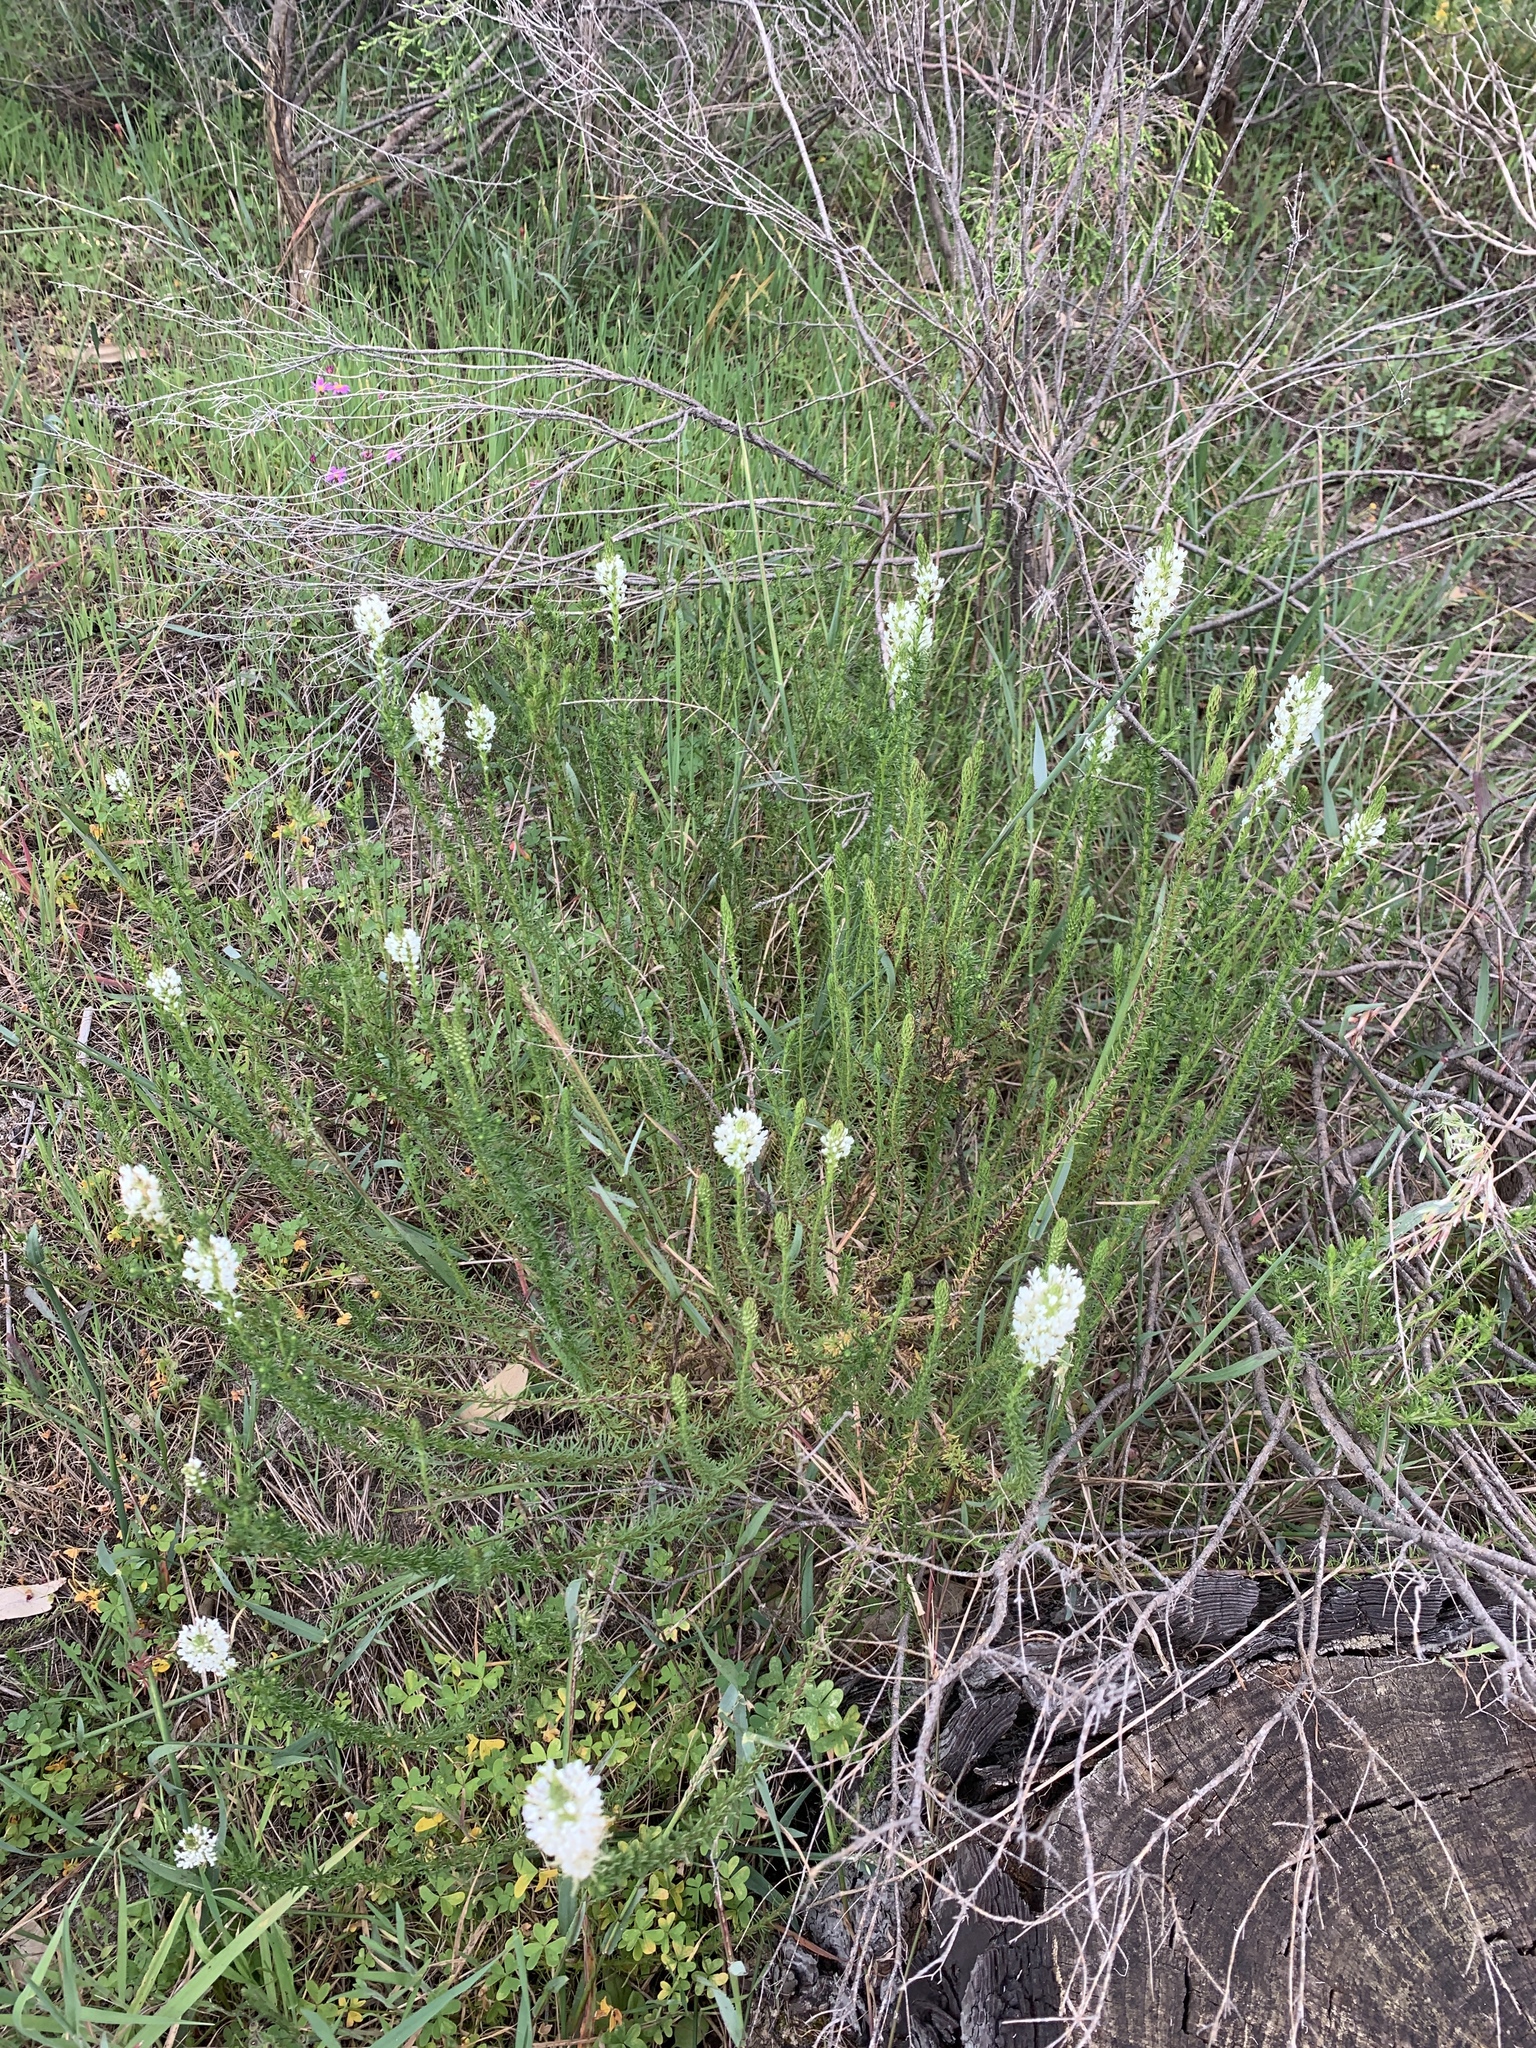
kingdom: Plantae
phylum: Tracheophyta
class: Magnoliopsida
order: Lamiales
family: Scrophulariaceae
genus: Dischisma
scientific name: Dischisma ciliatum
